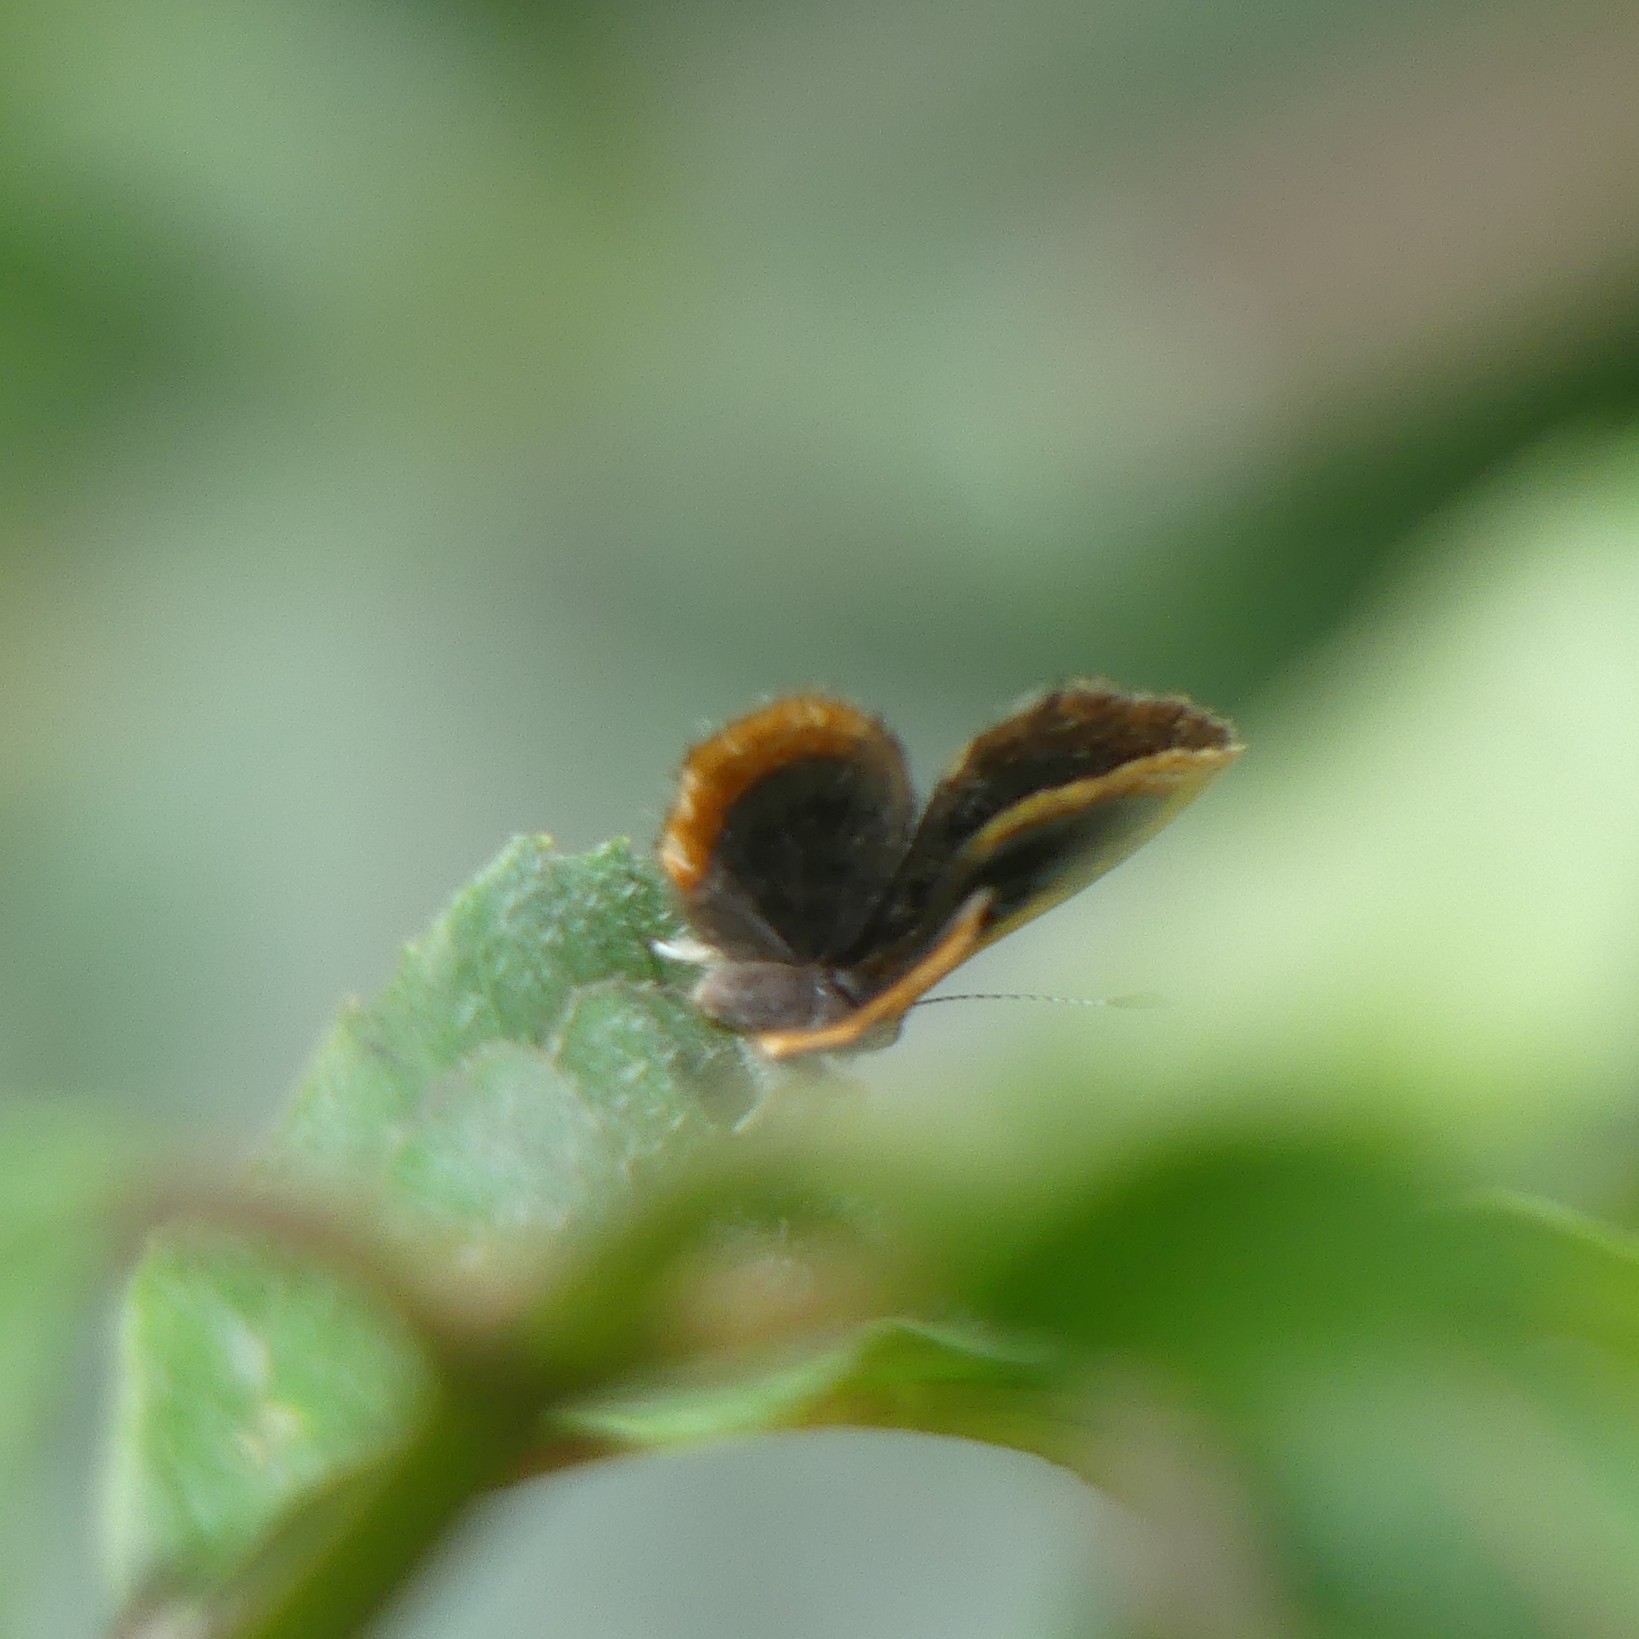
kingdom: Animalia
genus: Charis
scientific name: Charis Sarota flavicincta
